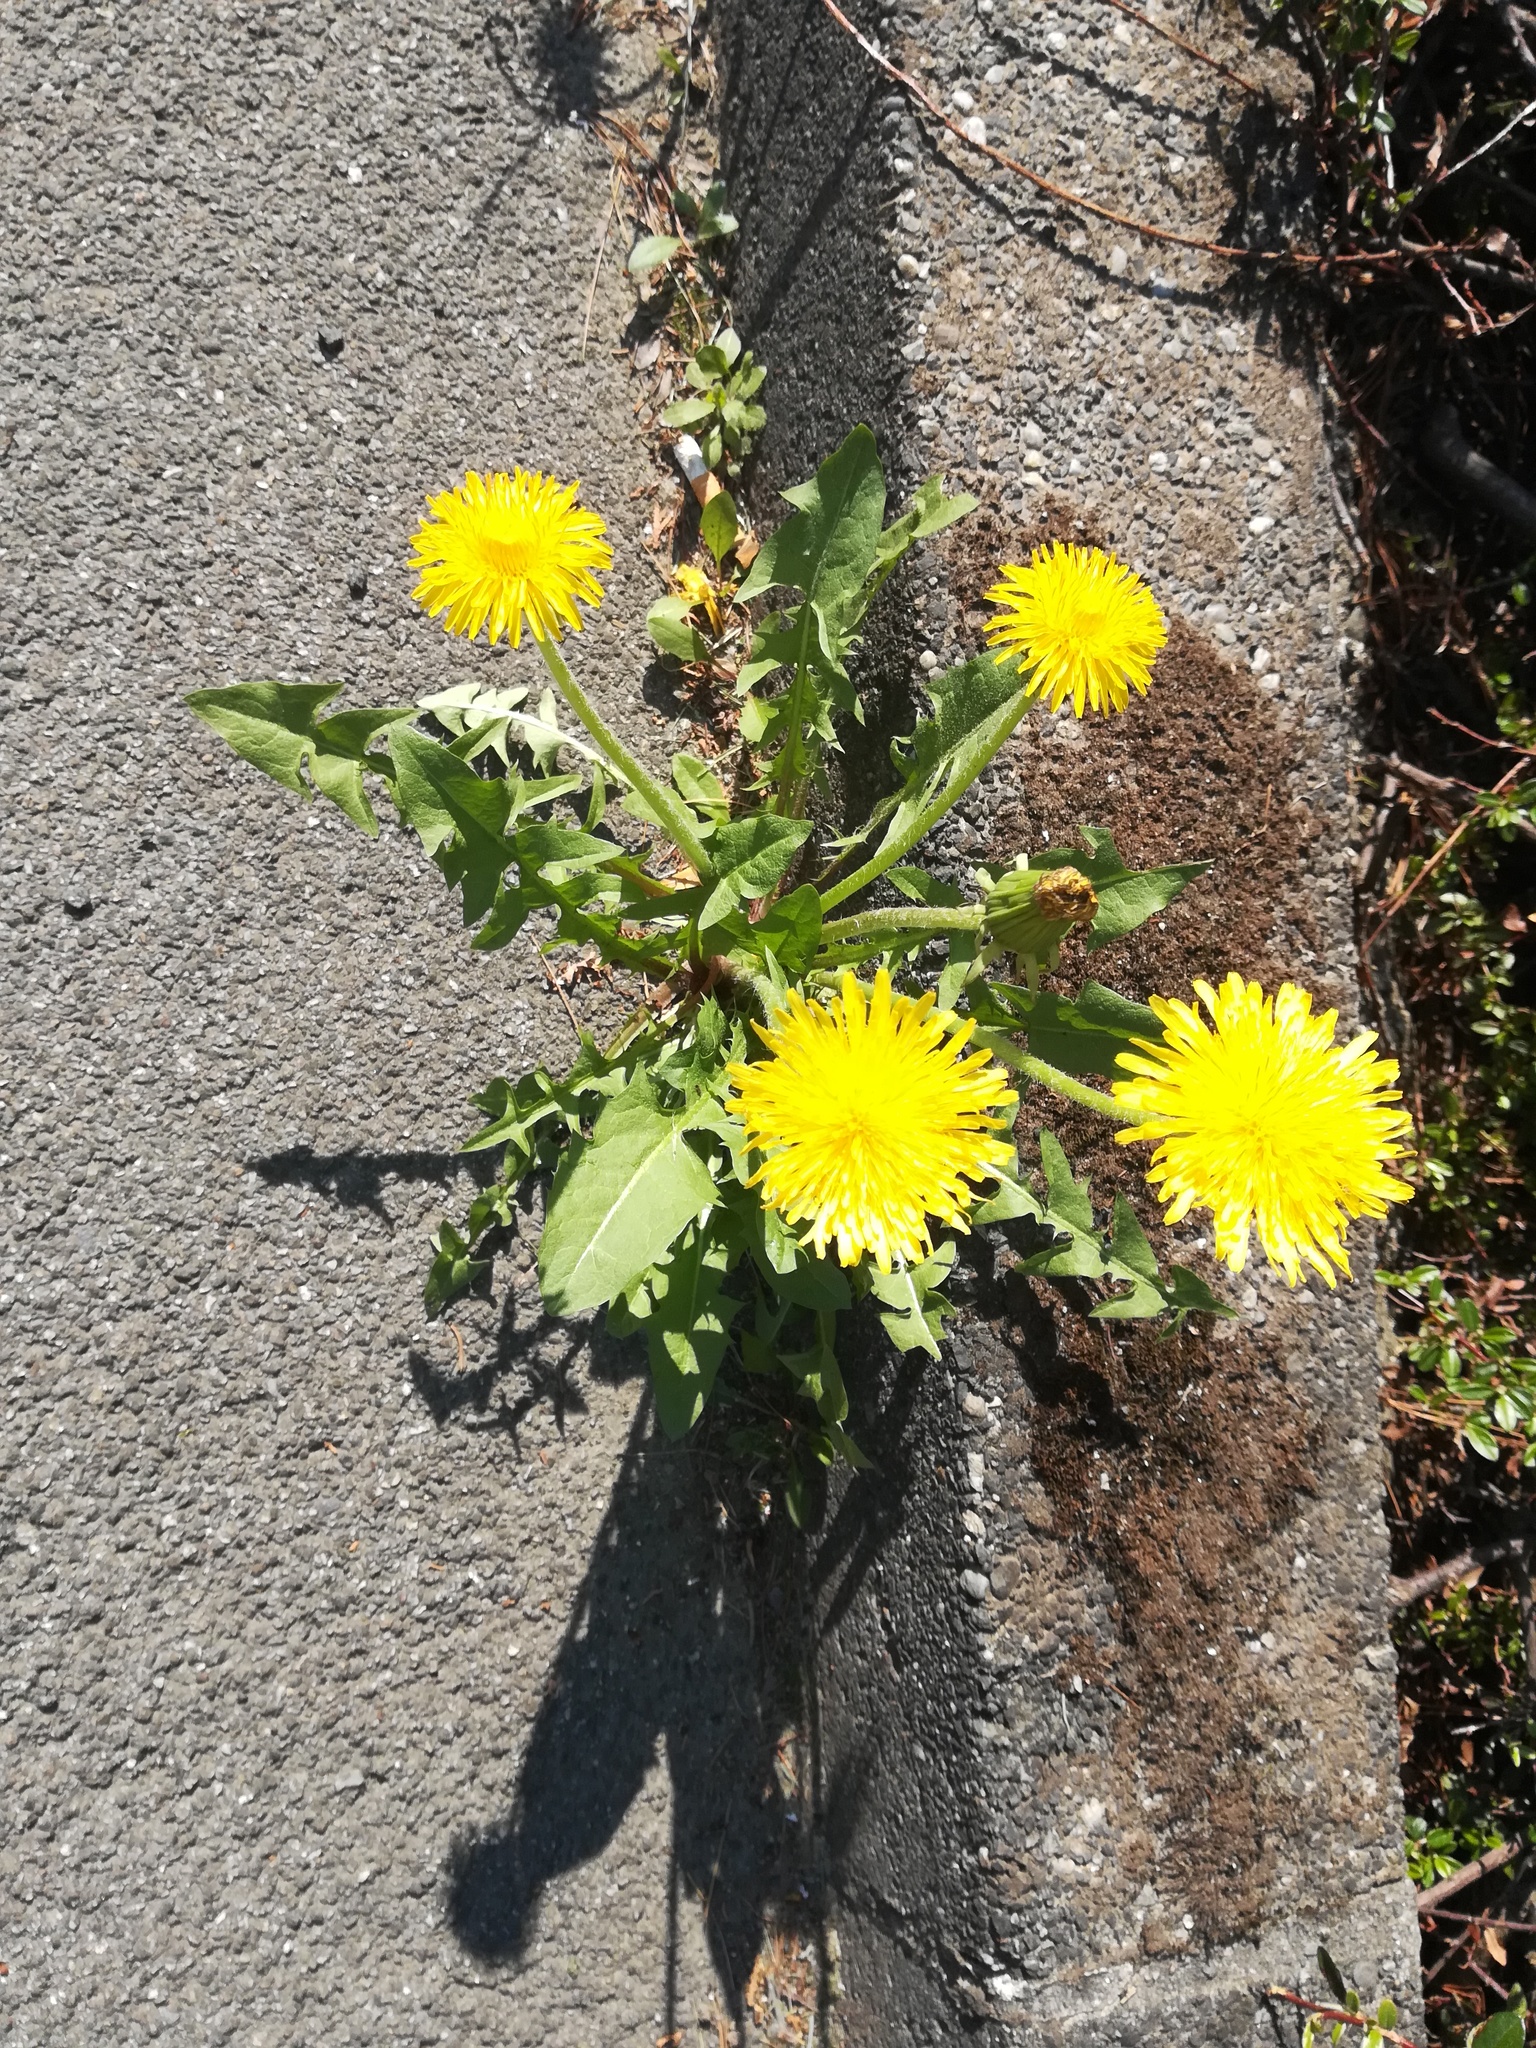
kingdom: Plantae
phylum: Tracheophyta
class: Magnoliopsida
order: Asterales
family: Asteraceae
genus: Taraxacum
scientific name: Taraxacum officinale
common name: Common dandelion
